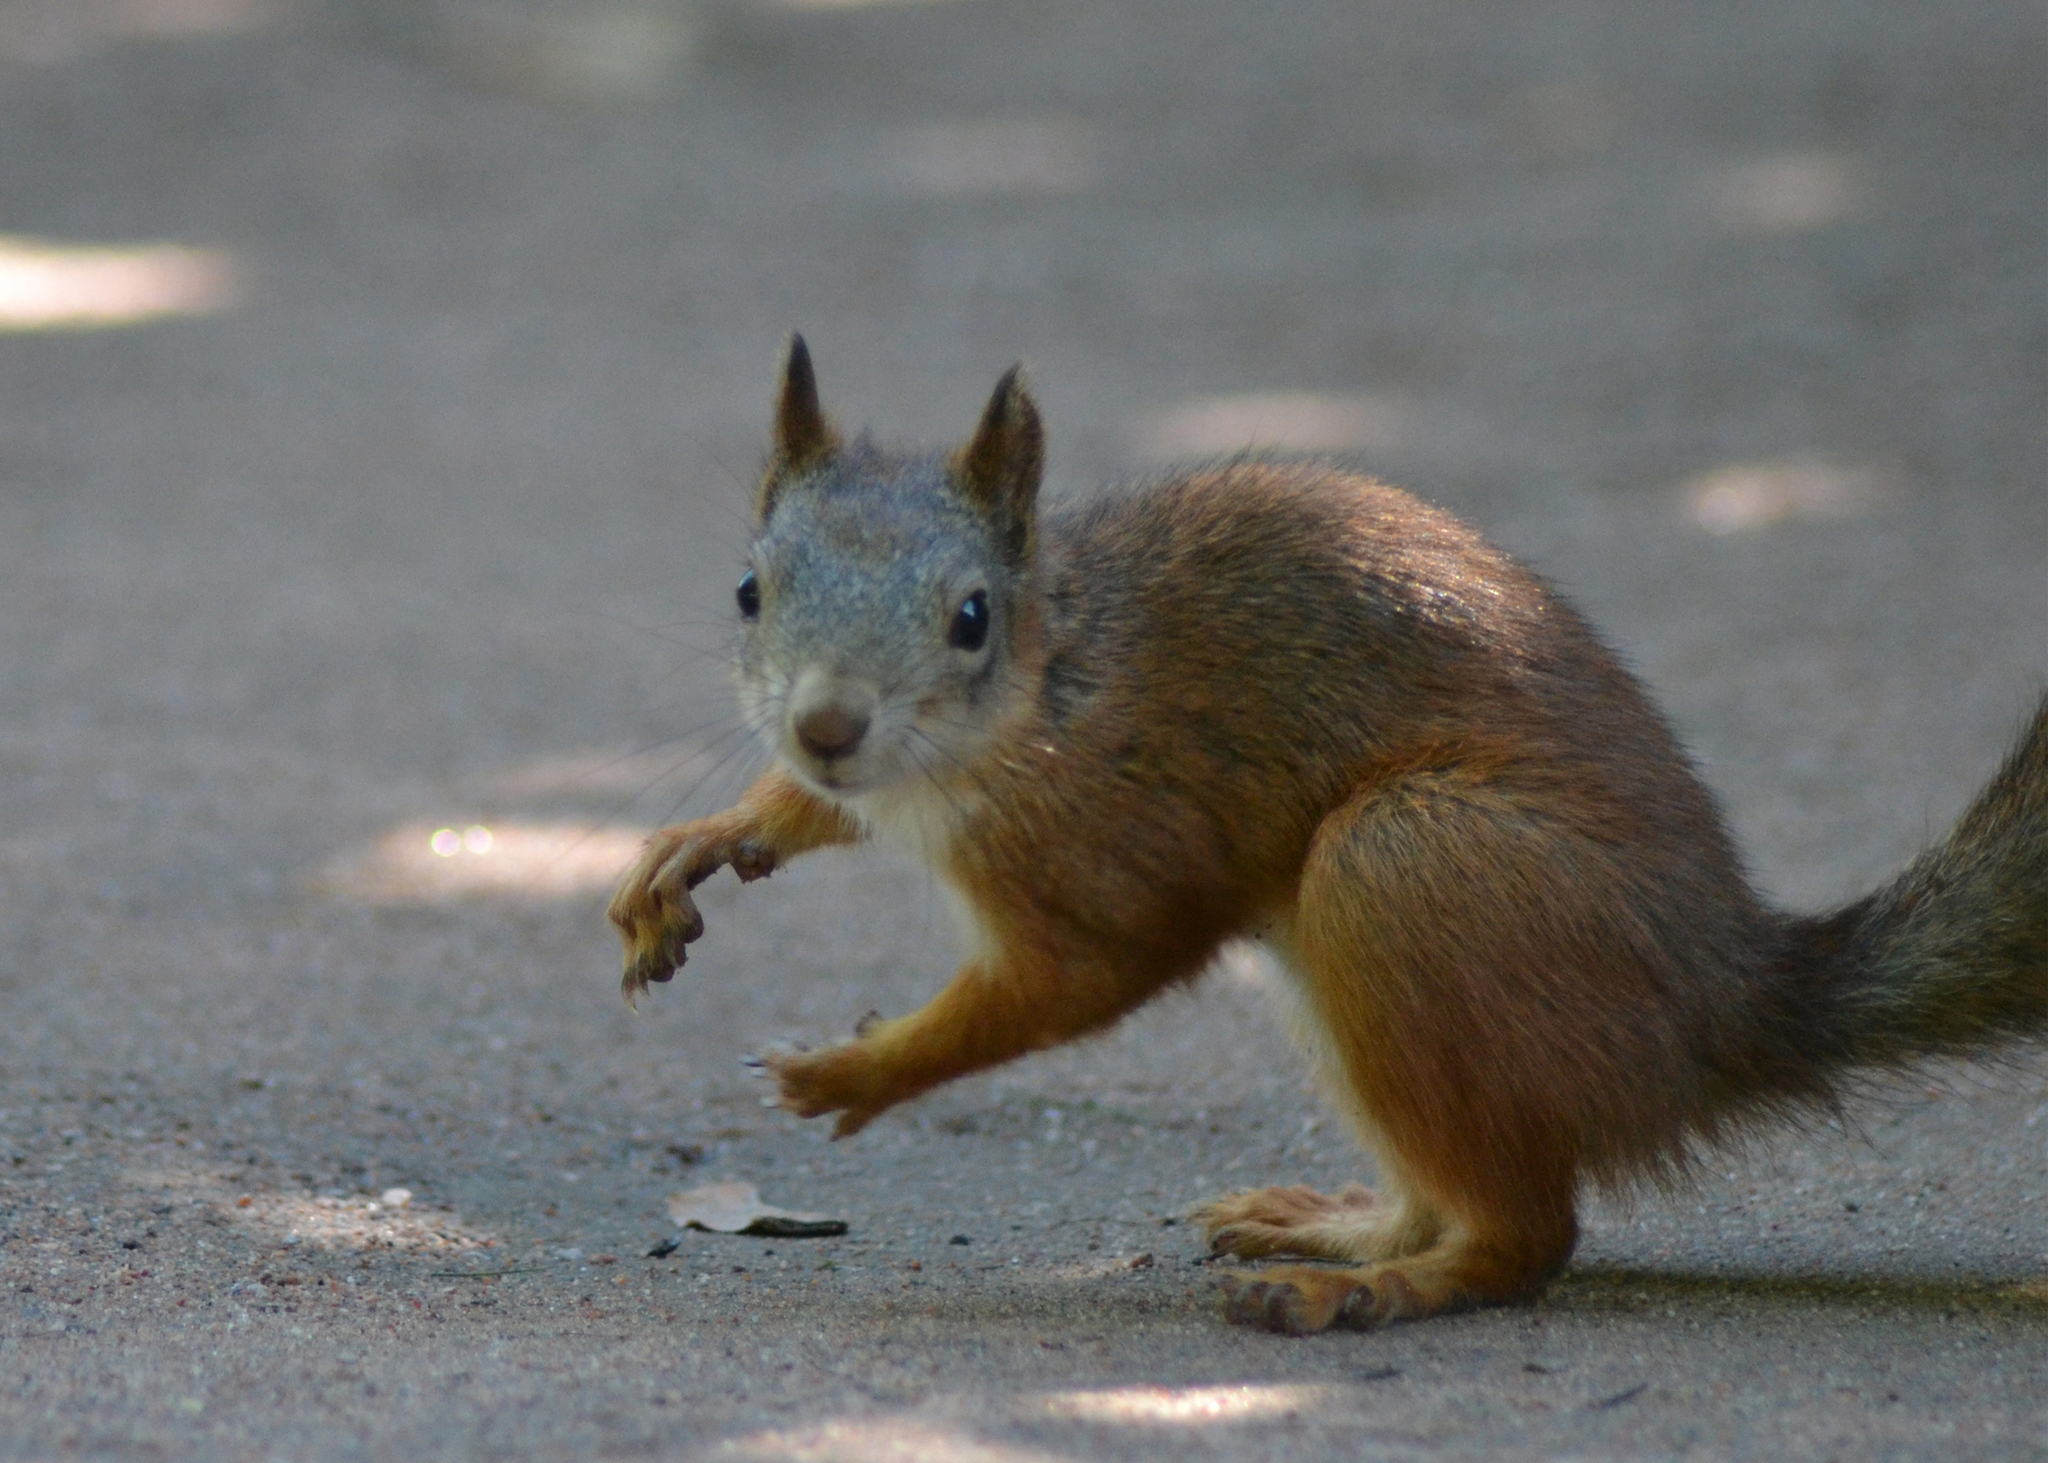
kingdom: Animalia
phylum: Chordata
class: Mammalia
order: Rodentia
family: Sciuridae
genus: Sciurus
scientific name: Sciurus vulgaris
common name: Eurasian red squirrel
